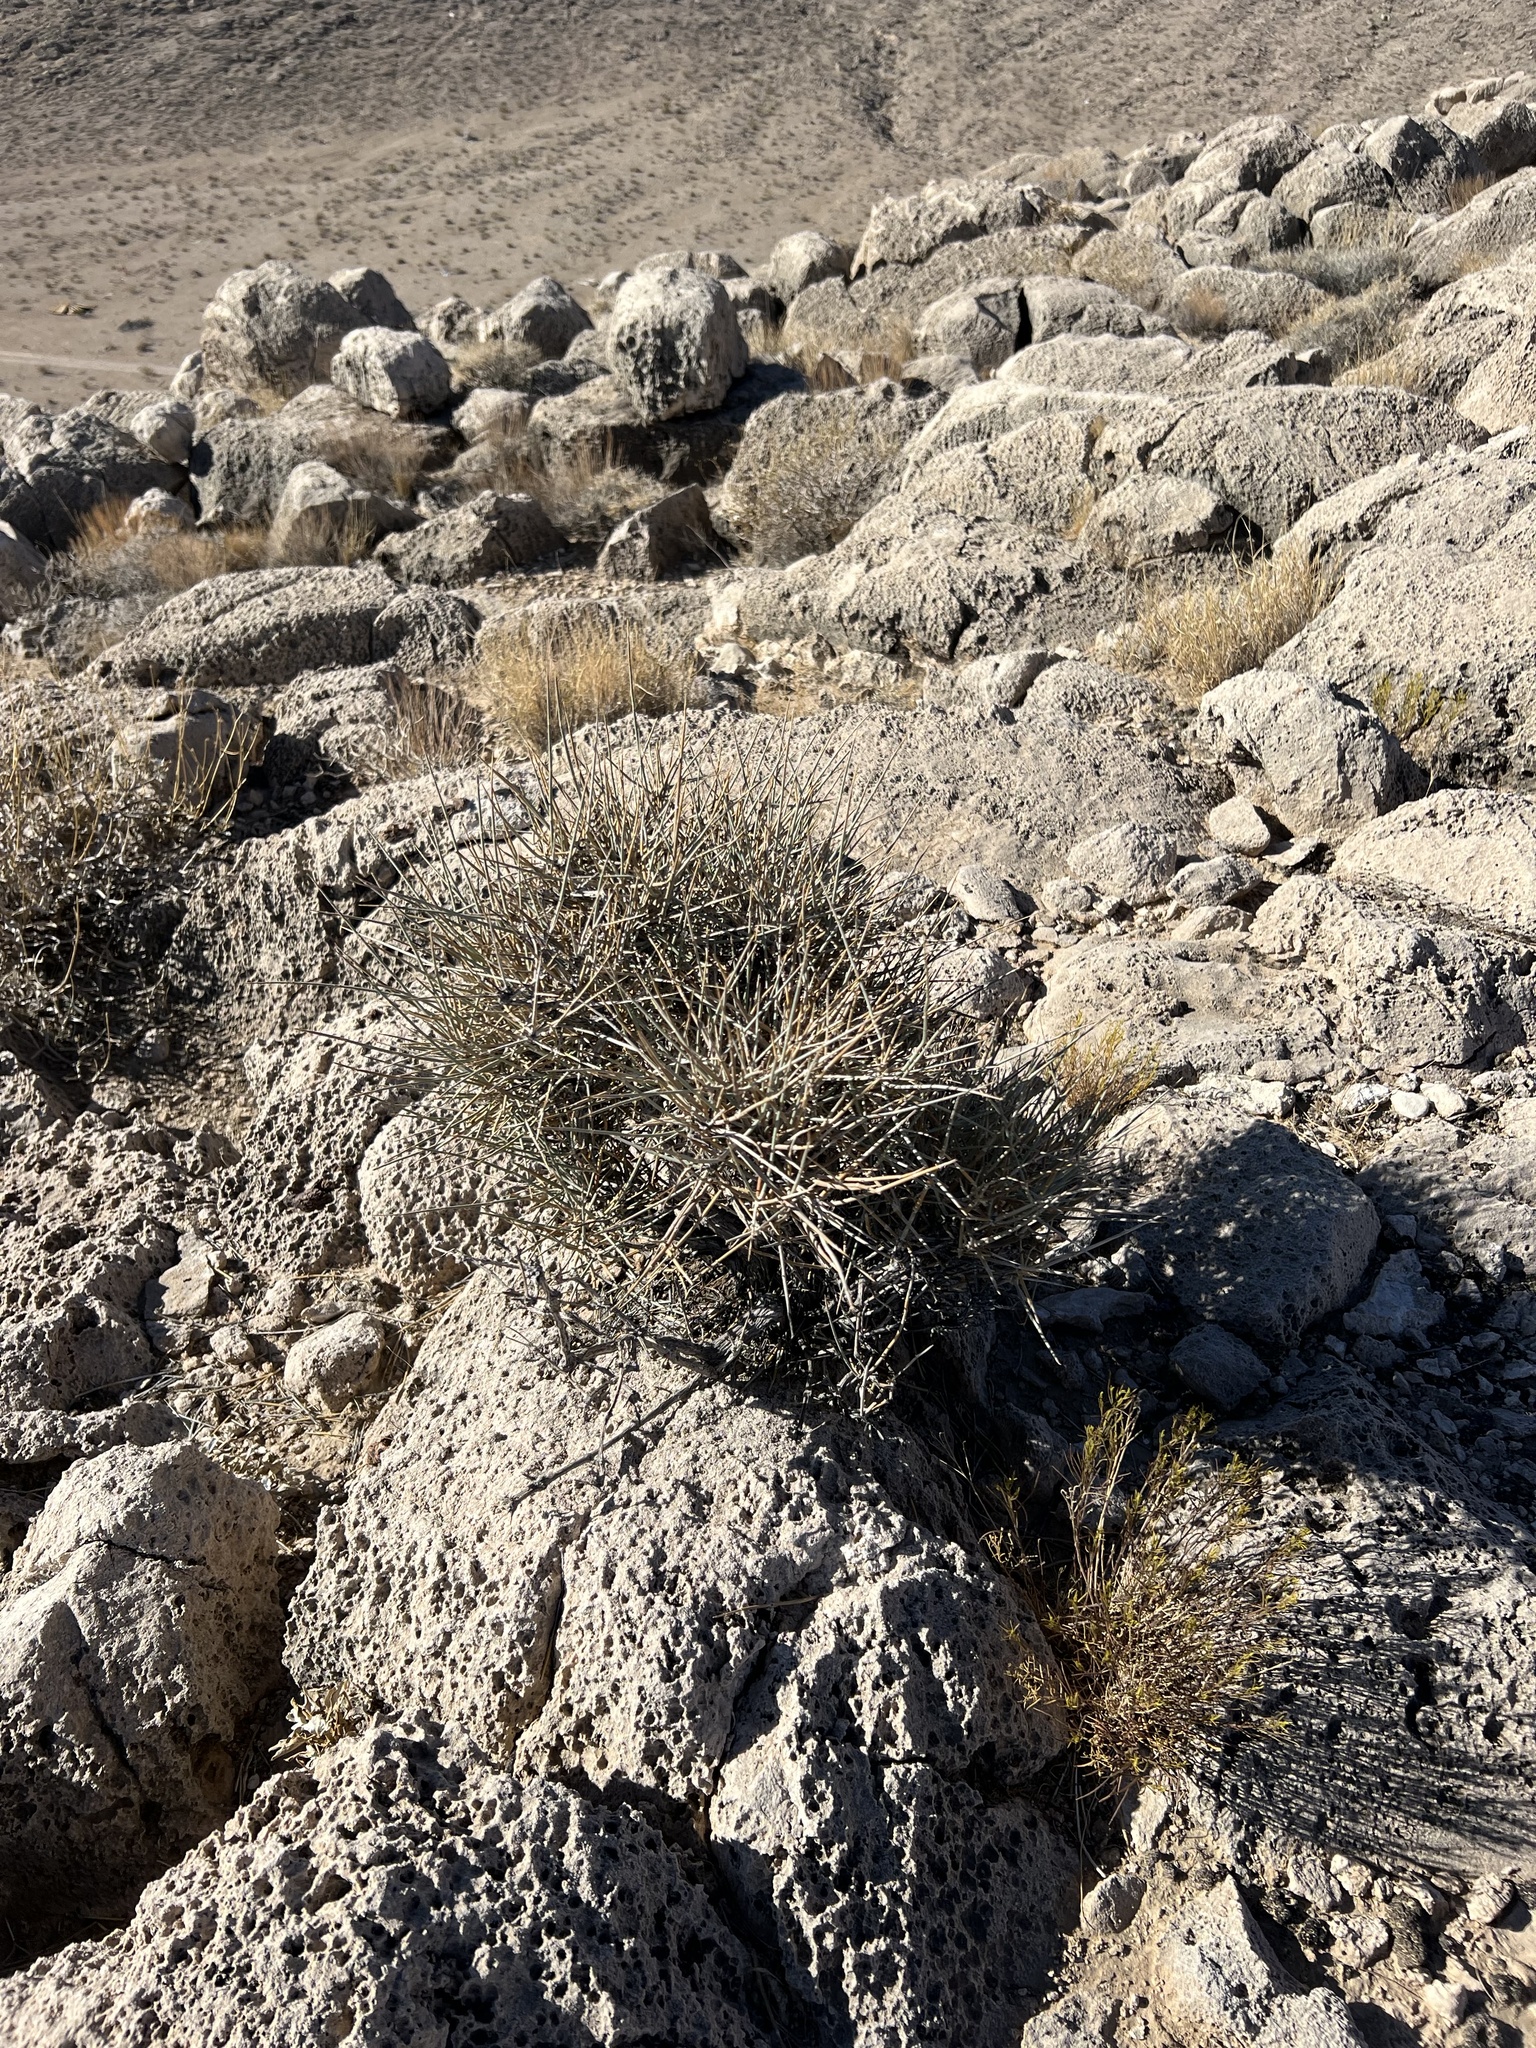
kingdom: Plantae
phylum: Tracheophyta
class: Gnetopsida
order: Ephedrales
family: Ephedraceae
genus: Ephedra
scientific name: Ephedra nevadensis
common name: Gray ephedra
